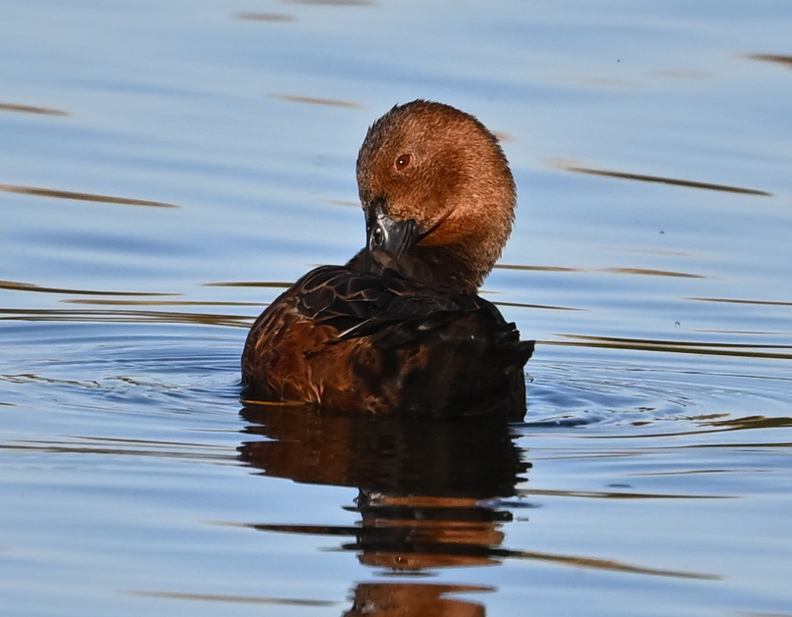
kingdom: Animalia
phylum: Chordata
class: Aves
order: Anseriformes
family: Anatidae
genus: Spatula
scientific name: Spatula cyanoptera
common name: Cinnamon teal
